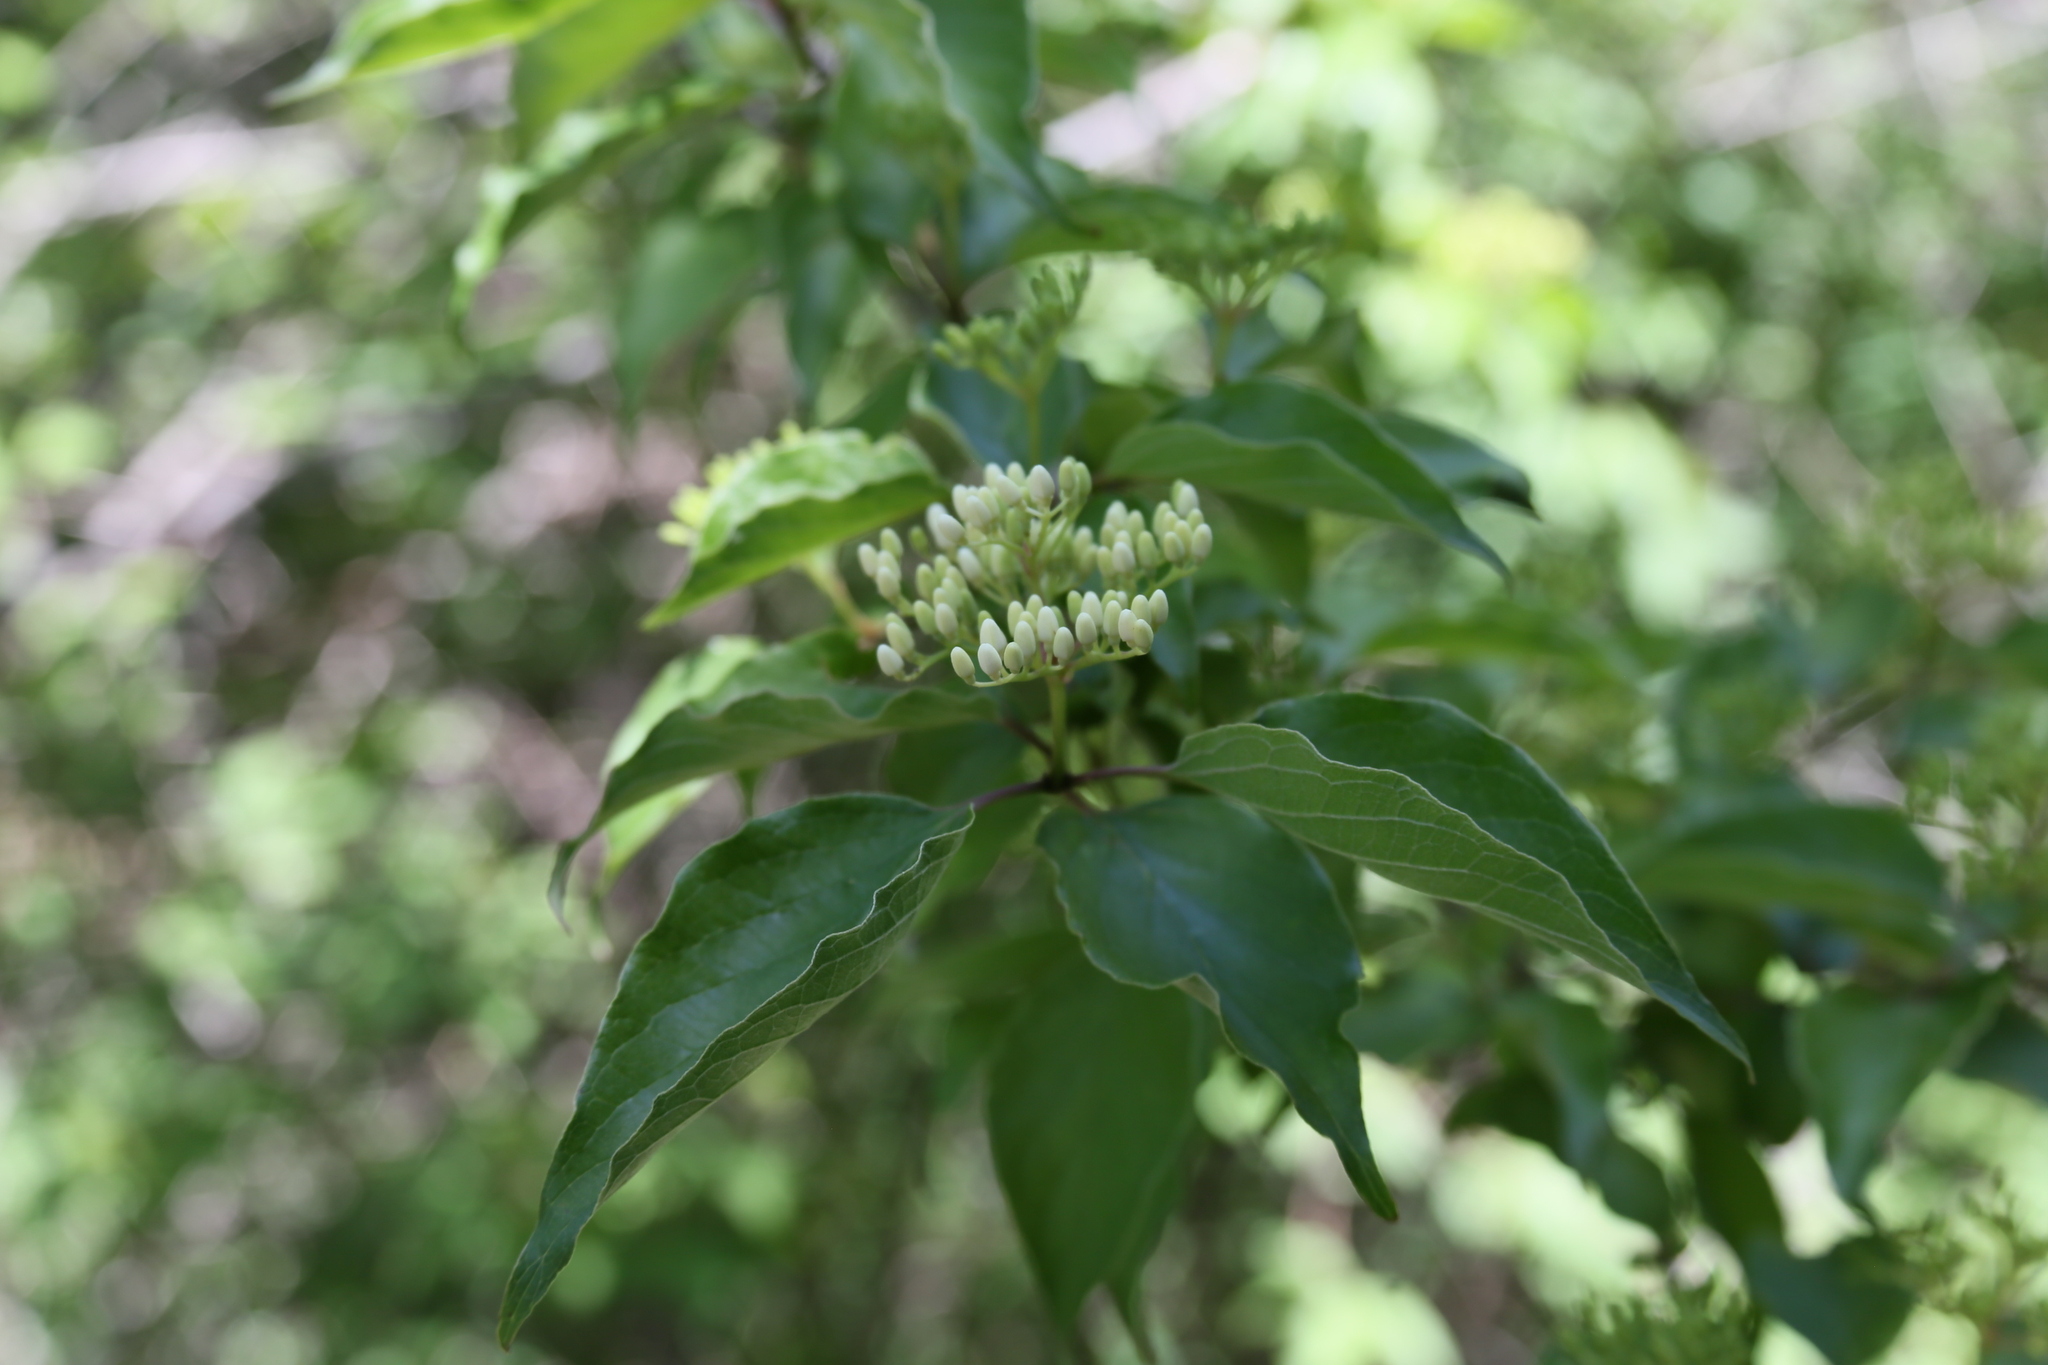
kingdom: Plantae
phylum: Tracheophyta
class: Magnoliopsida
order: Cornales
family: Cornaceae
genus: Cornus
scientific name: Cornus drummondii
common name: Rough-leaf dogwood
